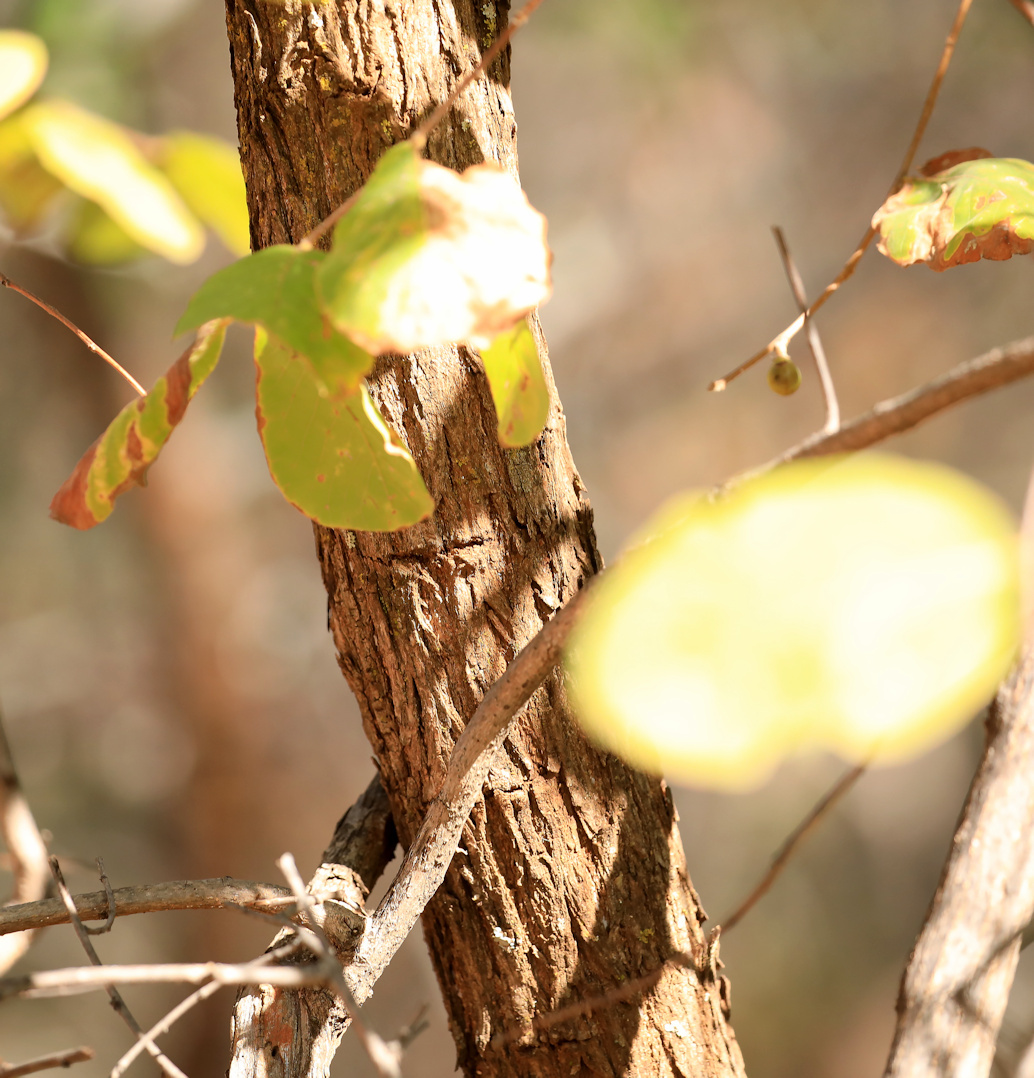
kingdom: Plantae
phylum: Tracheophyta
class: Magnoliopsida
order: Malpighiales
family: Phyllanthaceae
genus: Bridelia
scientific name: Bridelia mollis
